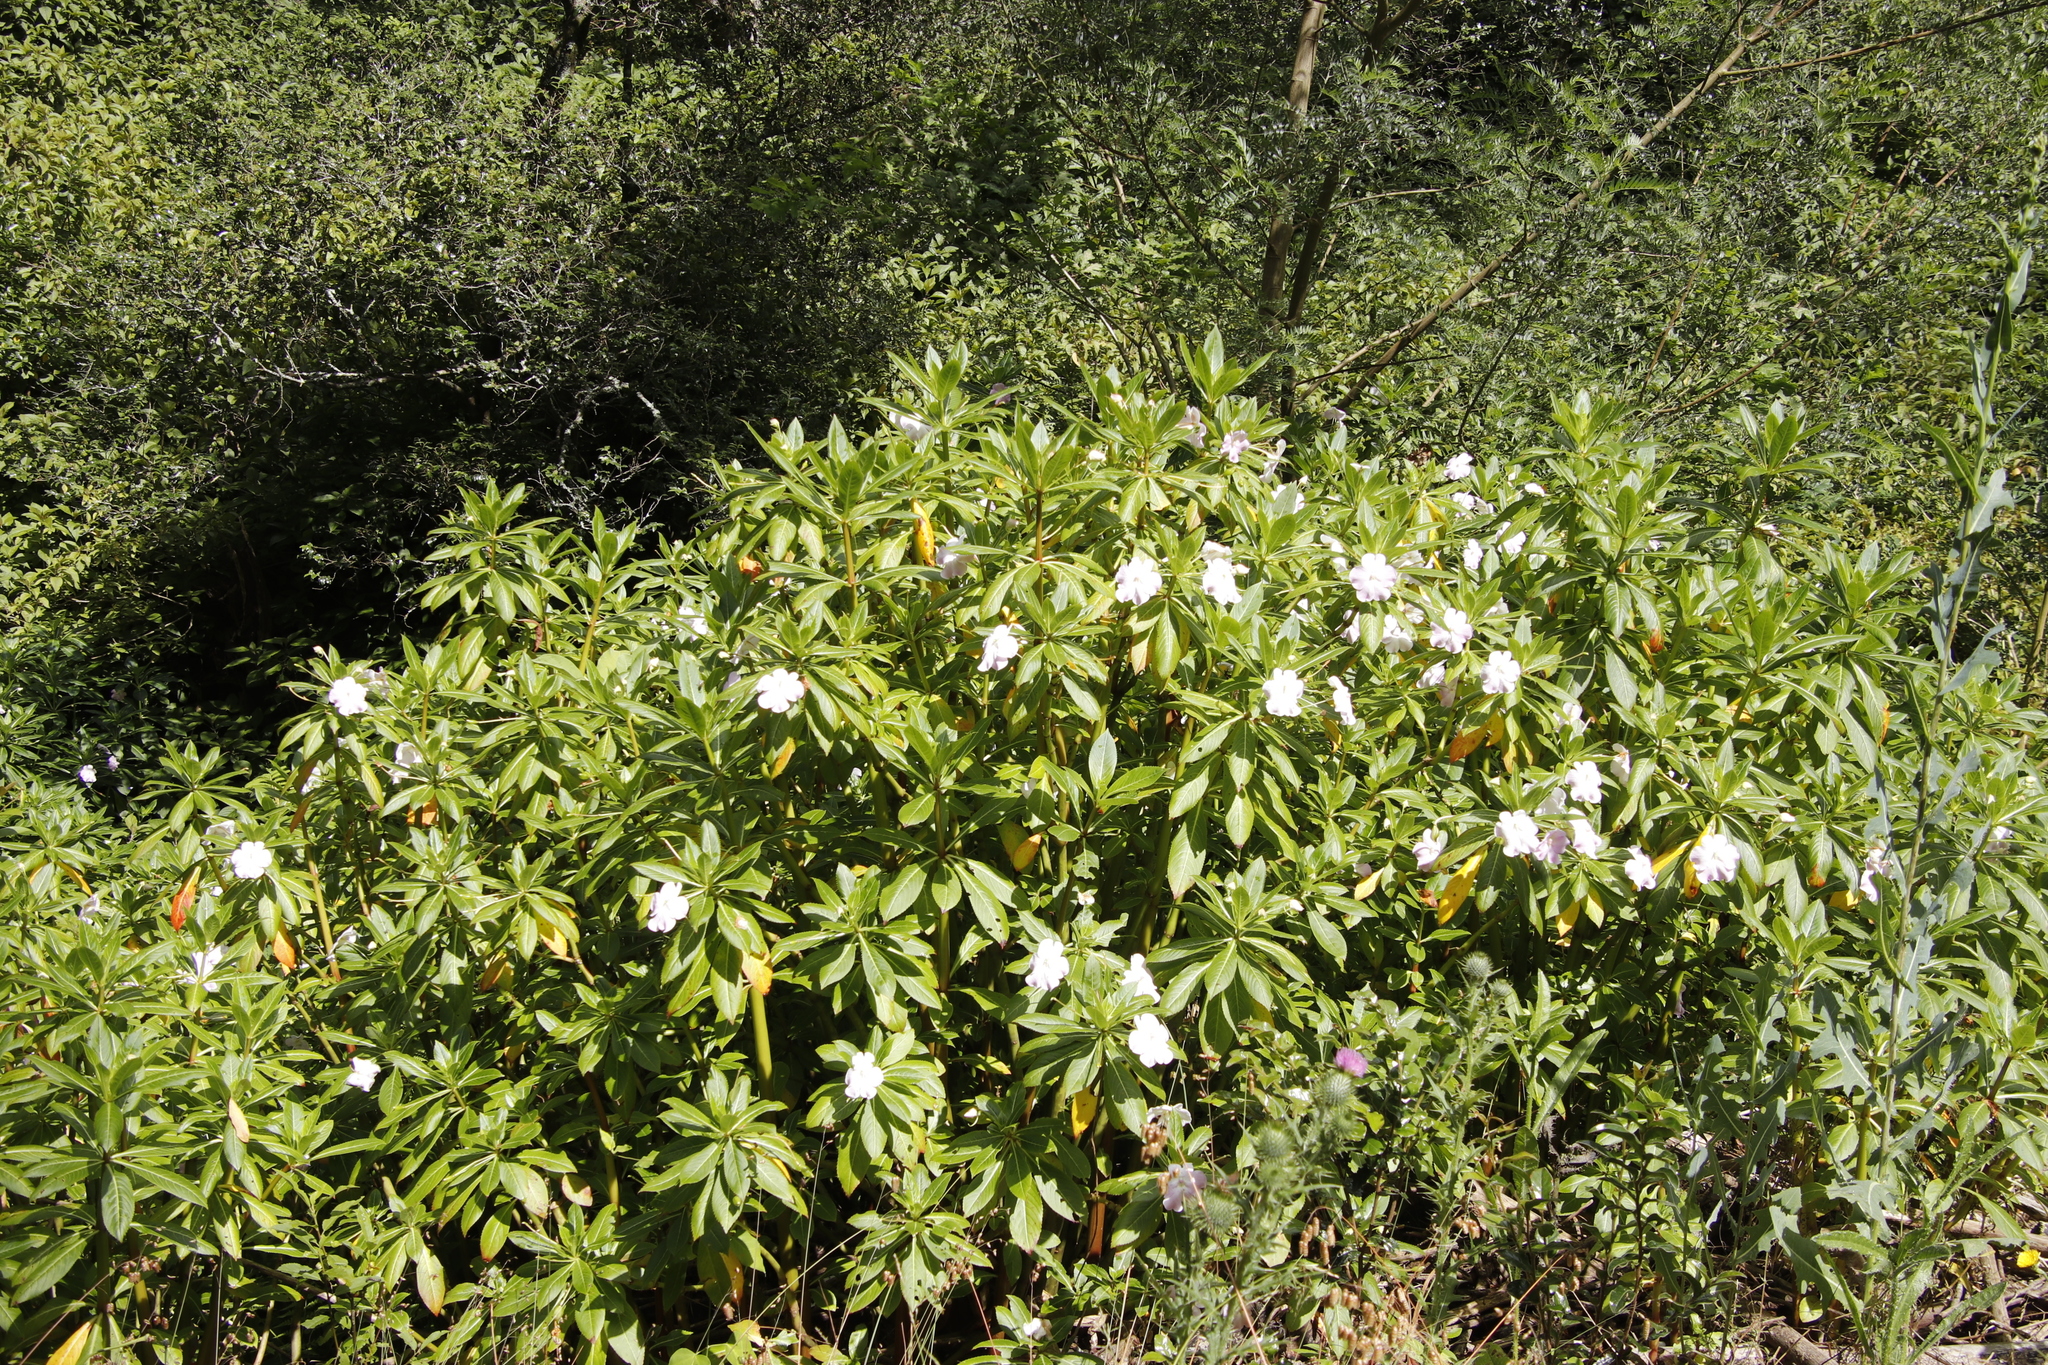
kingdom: Plantae
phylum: Tracheophyta
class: Magnoliopsida
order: Ericales
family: Balsaminaceae
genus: Impatiens
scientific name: Impatiens sodenii
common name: Oliver's touch-me-not
